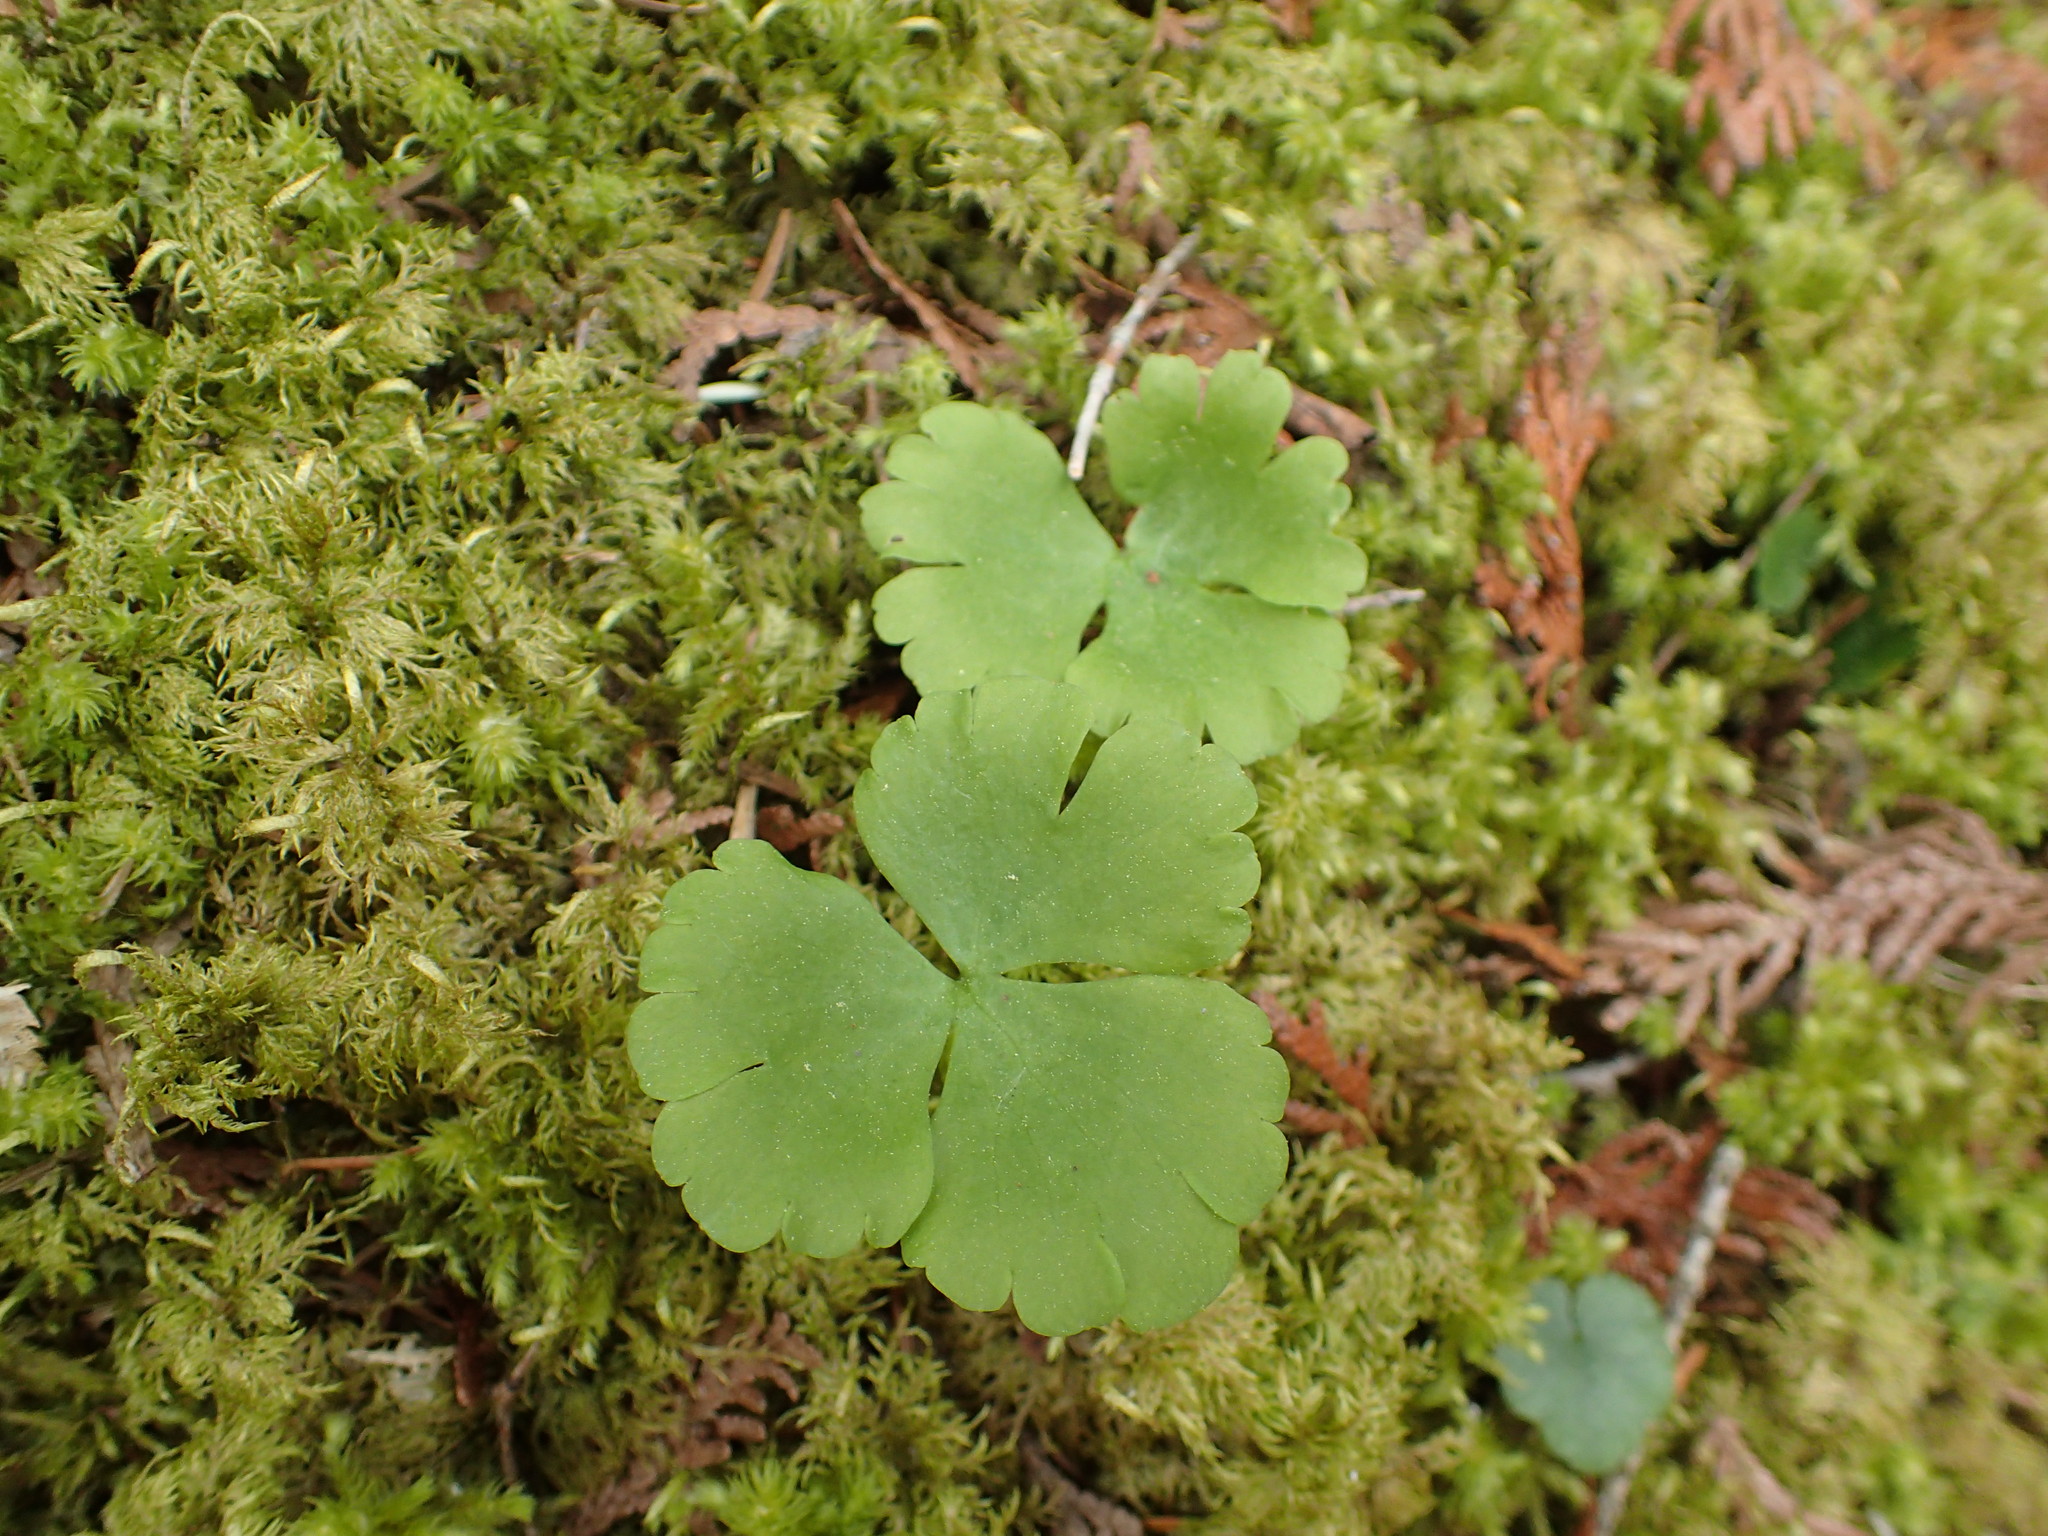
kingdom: Plantae
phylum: Tracheophyta
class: Magnoliopsida
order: Ranunculales
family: Ranunculaceae
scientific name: Ranunculaceae
